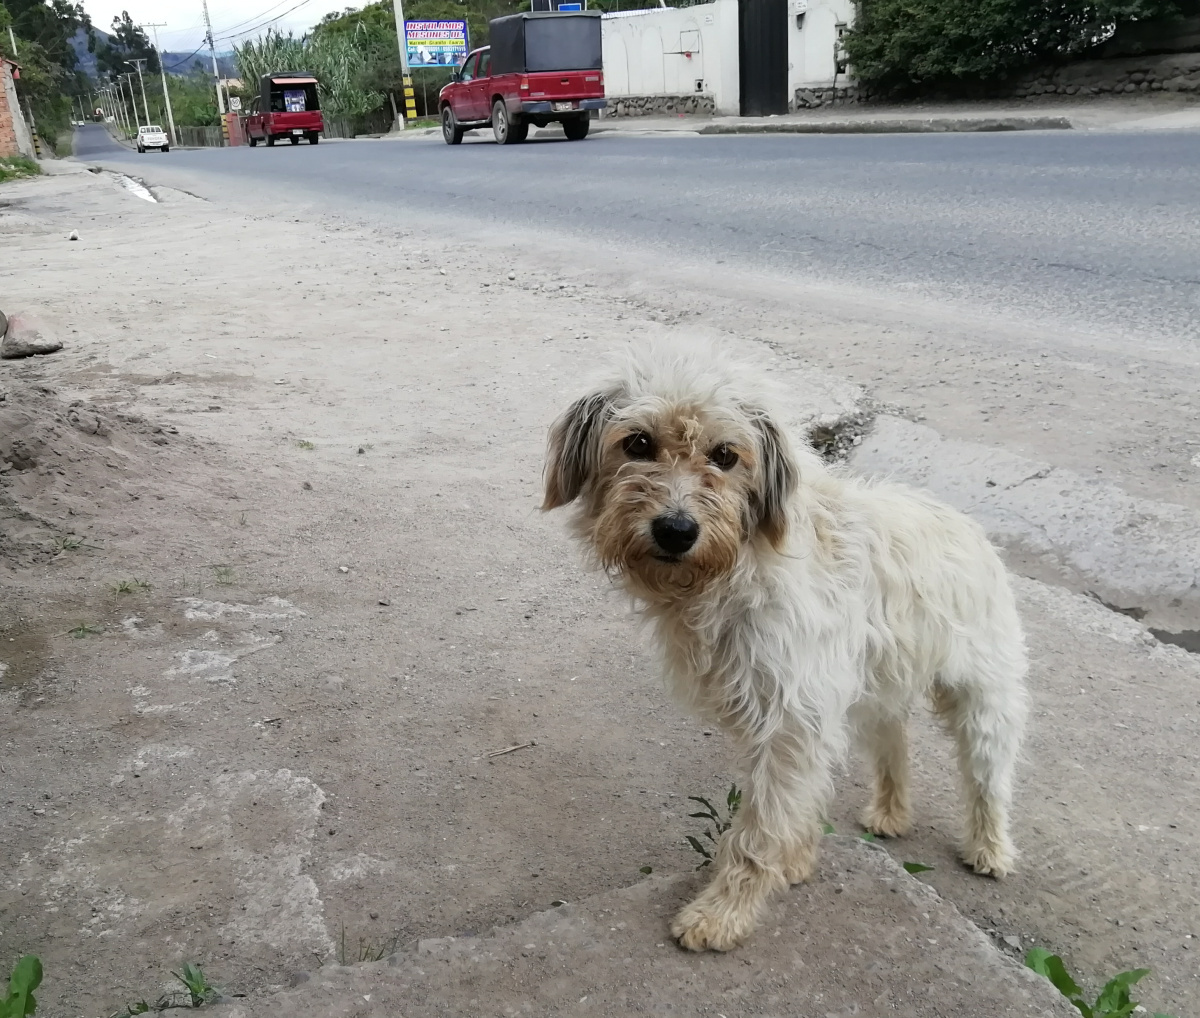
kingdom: Animalia
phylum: Chordata
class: Mammalia
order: Carnivora
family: Canidae
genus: Canis
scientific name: Canis lupus
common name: Gray wolf
